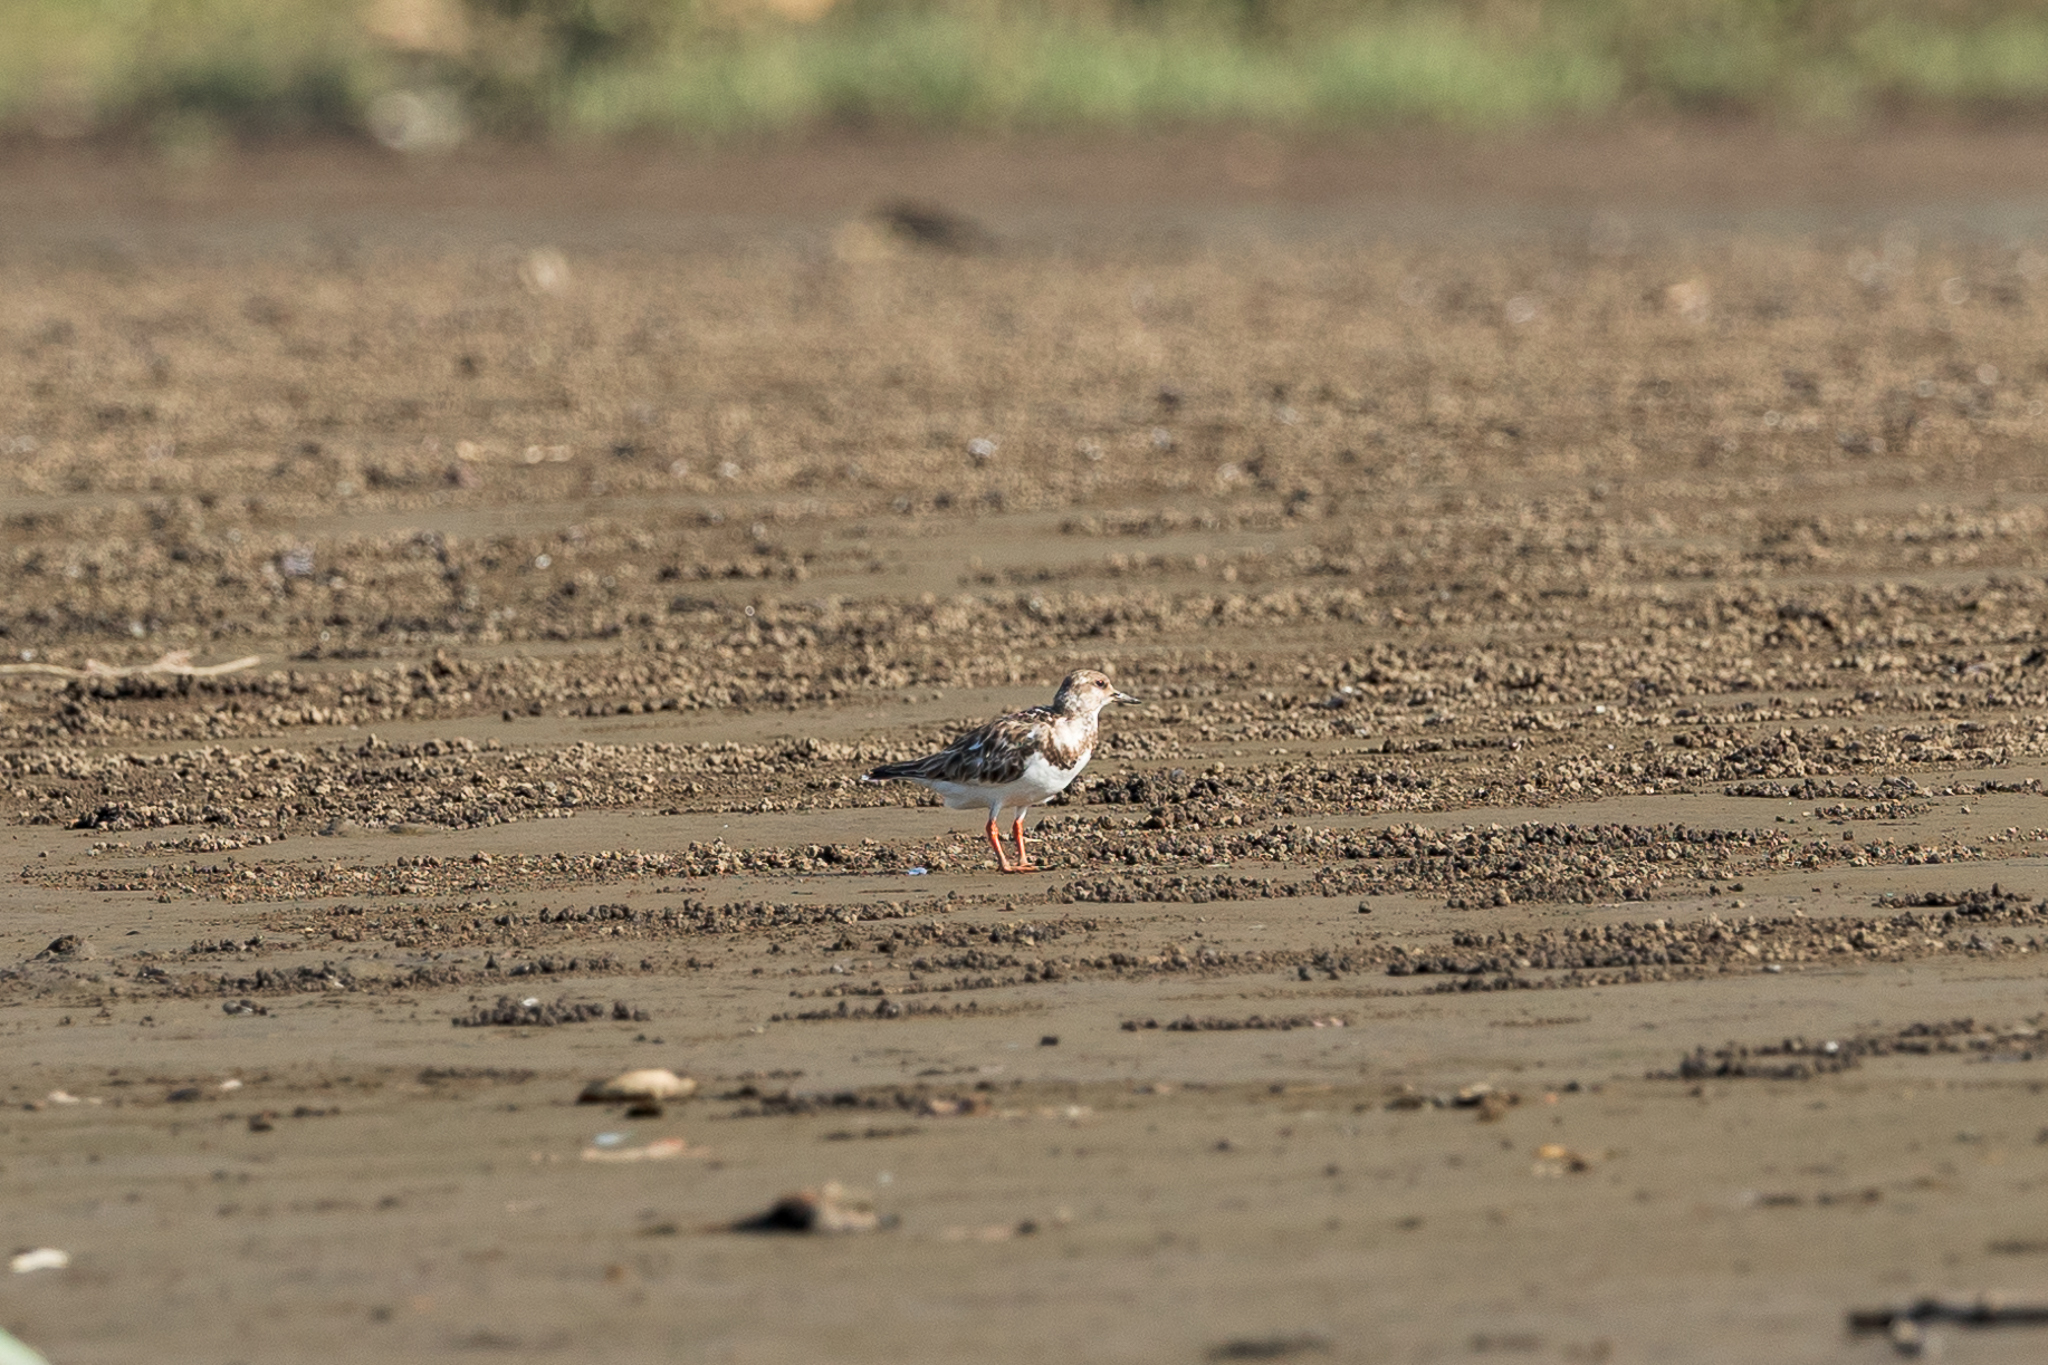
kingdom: Animalia
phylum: Chordata
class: Aves
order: Charadriiformes
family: Scolopacidae
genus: Arenaria
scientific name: Arenaria interpres
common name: Ruddy turnstone
